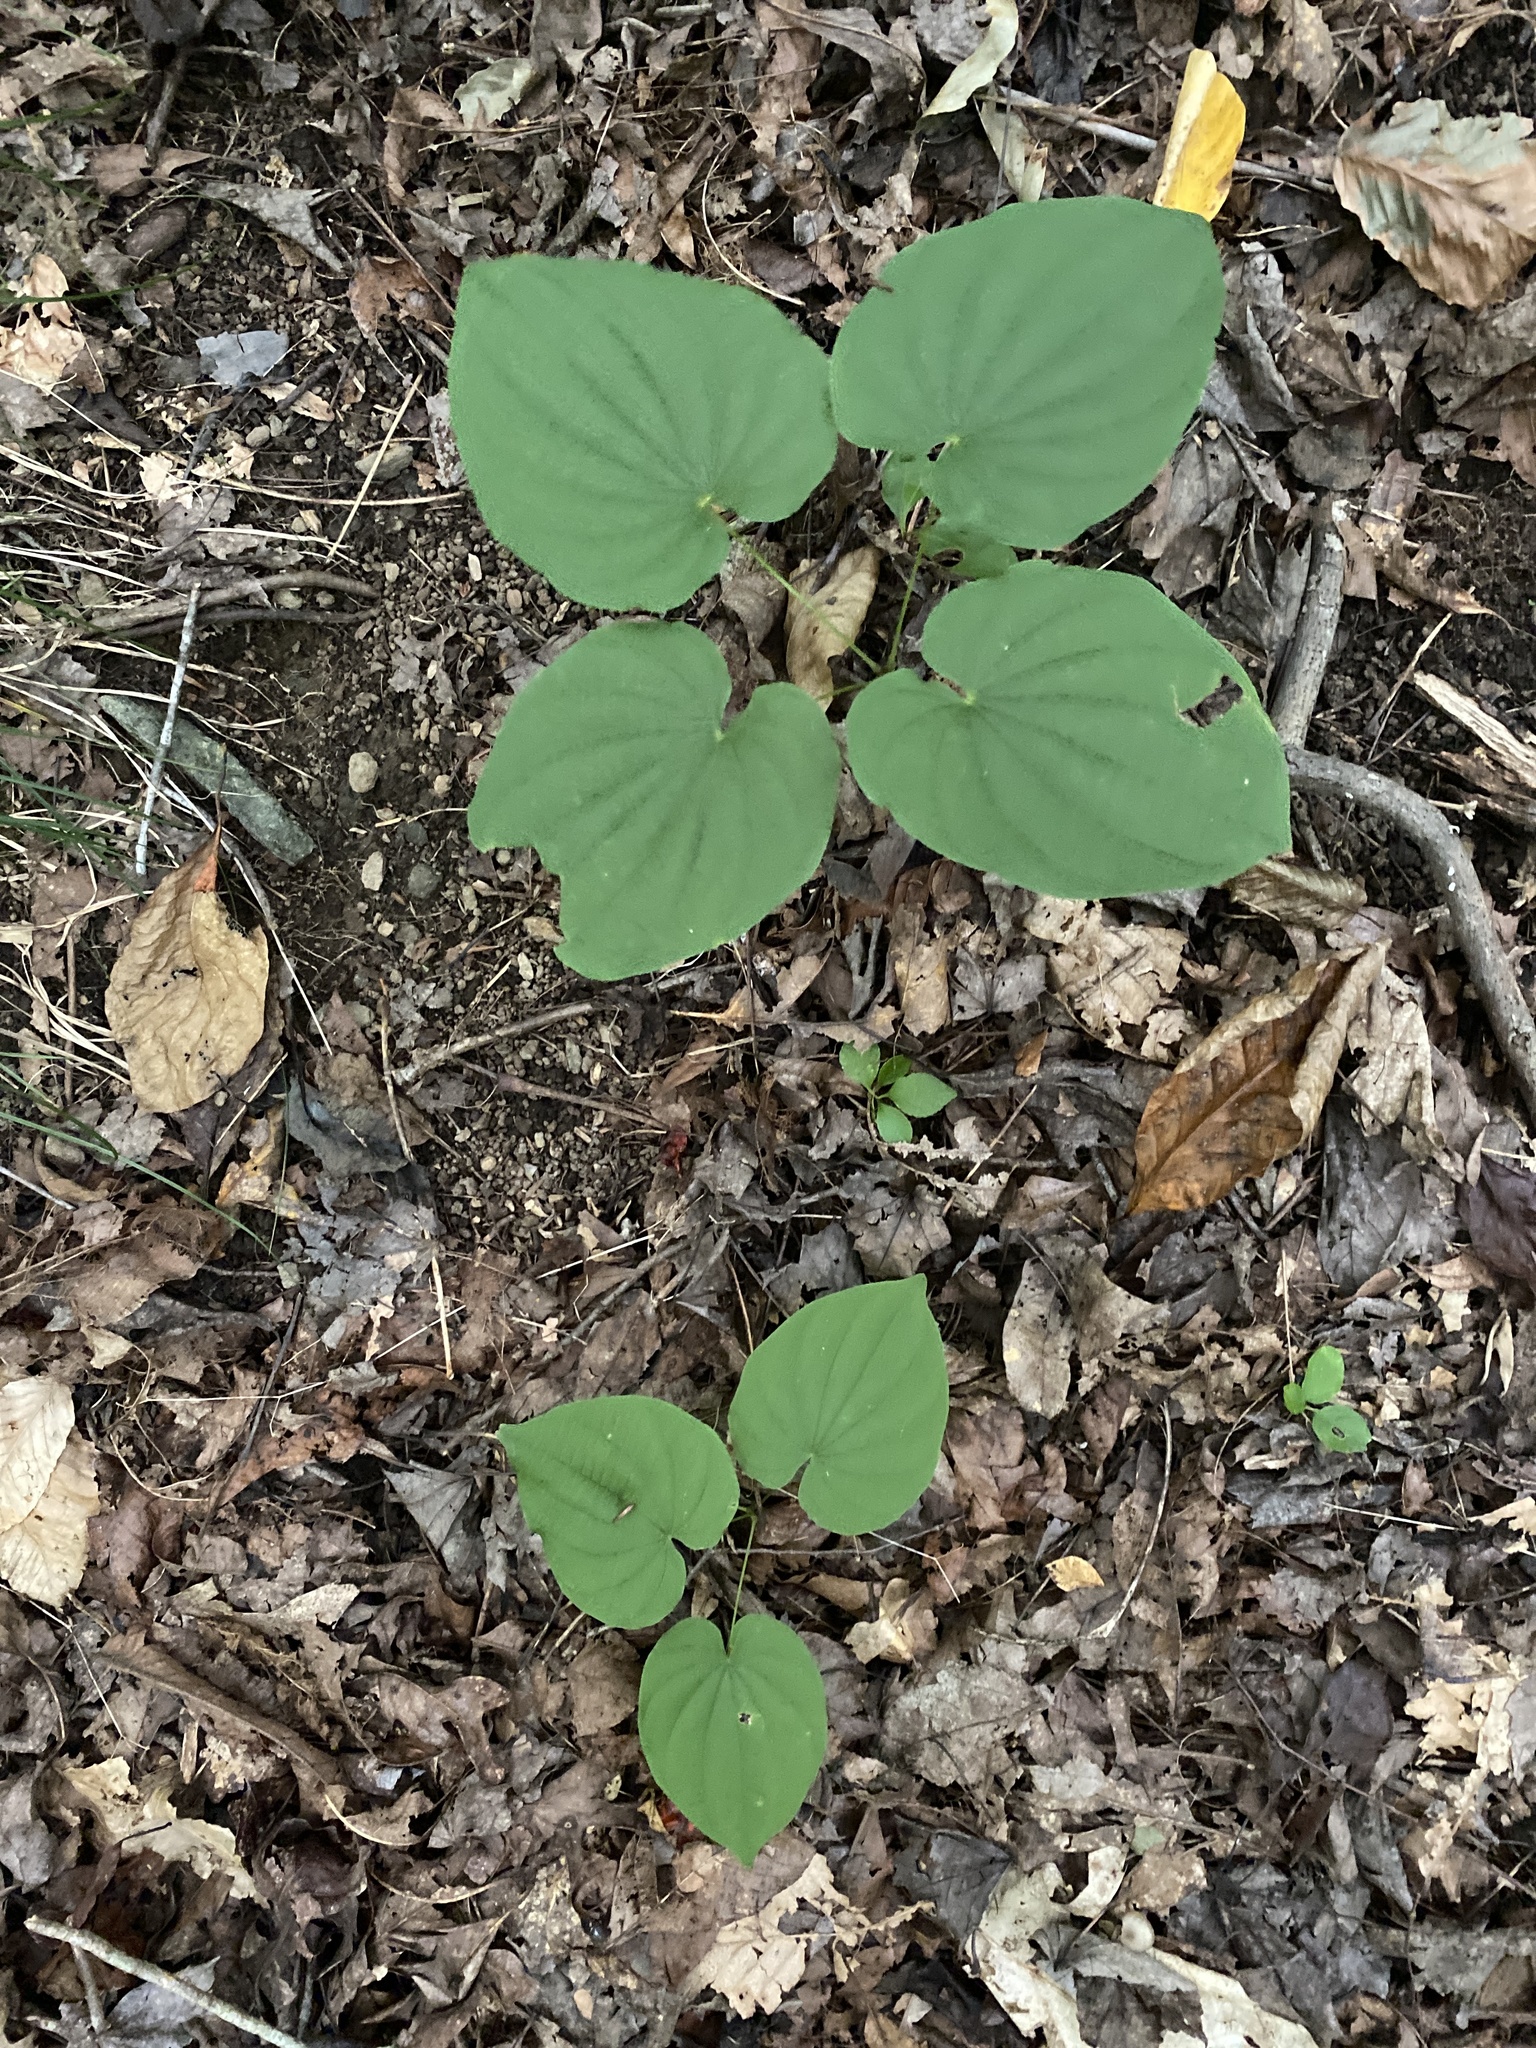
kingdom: Plantae
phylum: Tracheophyta
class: Liliopsida
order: Dioscoreales
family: Dioscoreaceae
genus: Dioscorea
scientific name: Dioscorea villosa
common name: Wild yam
